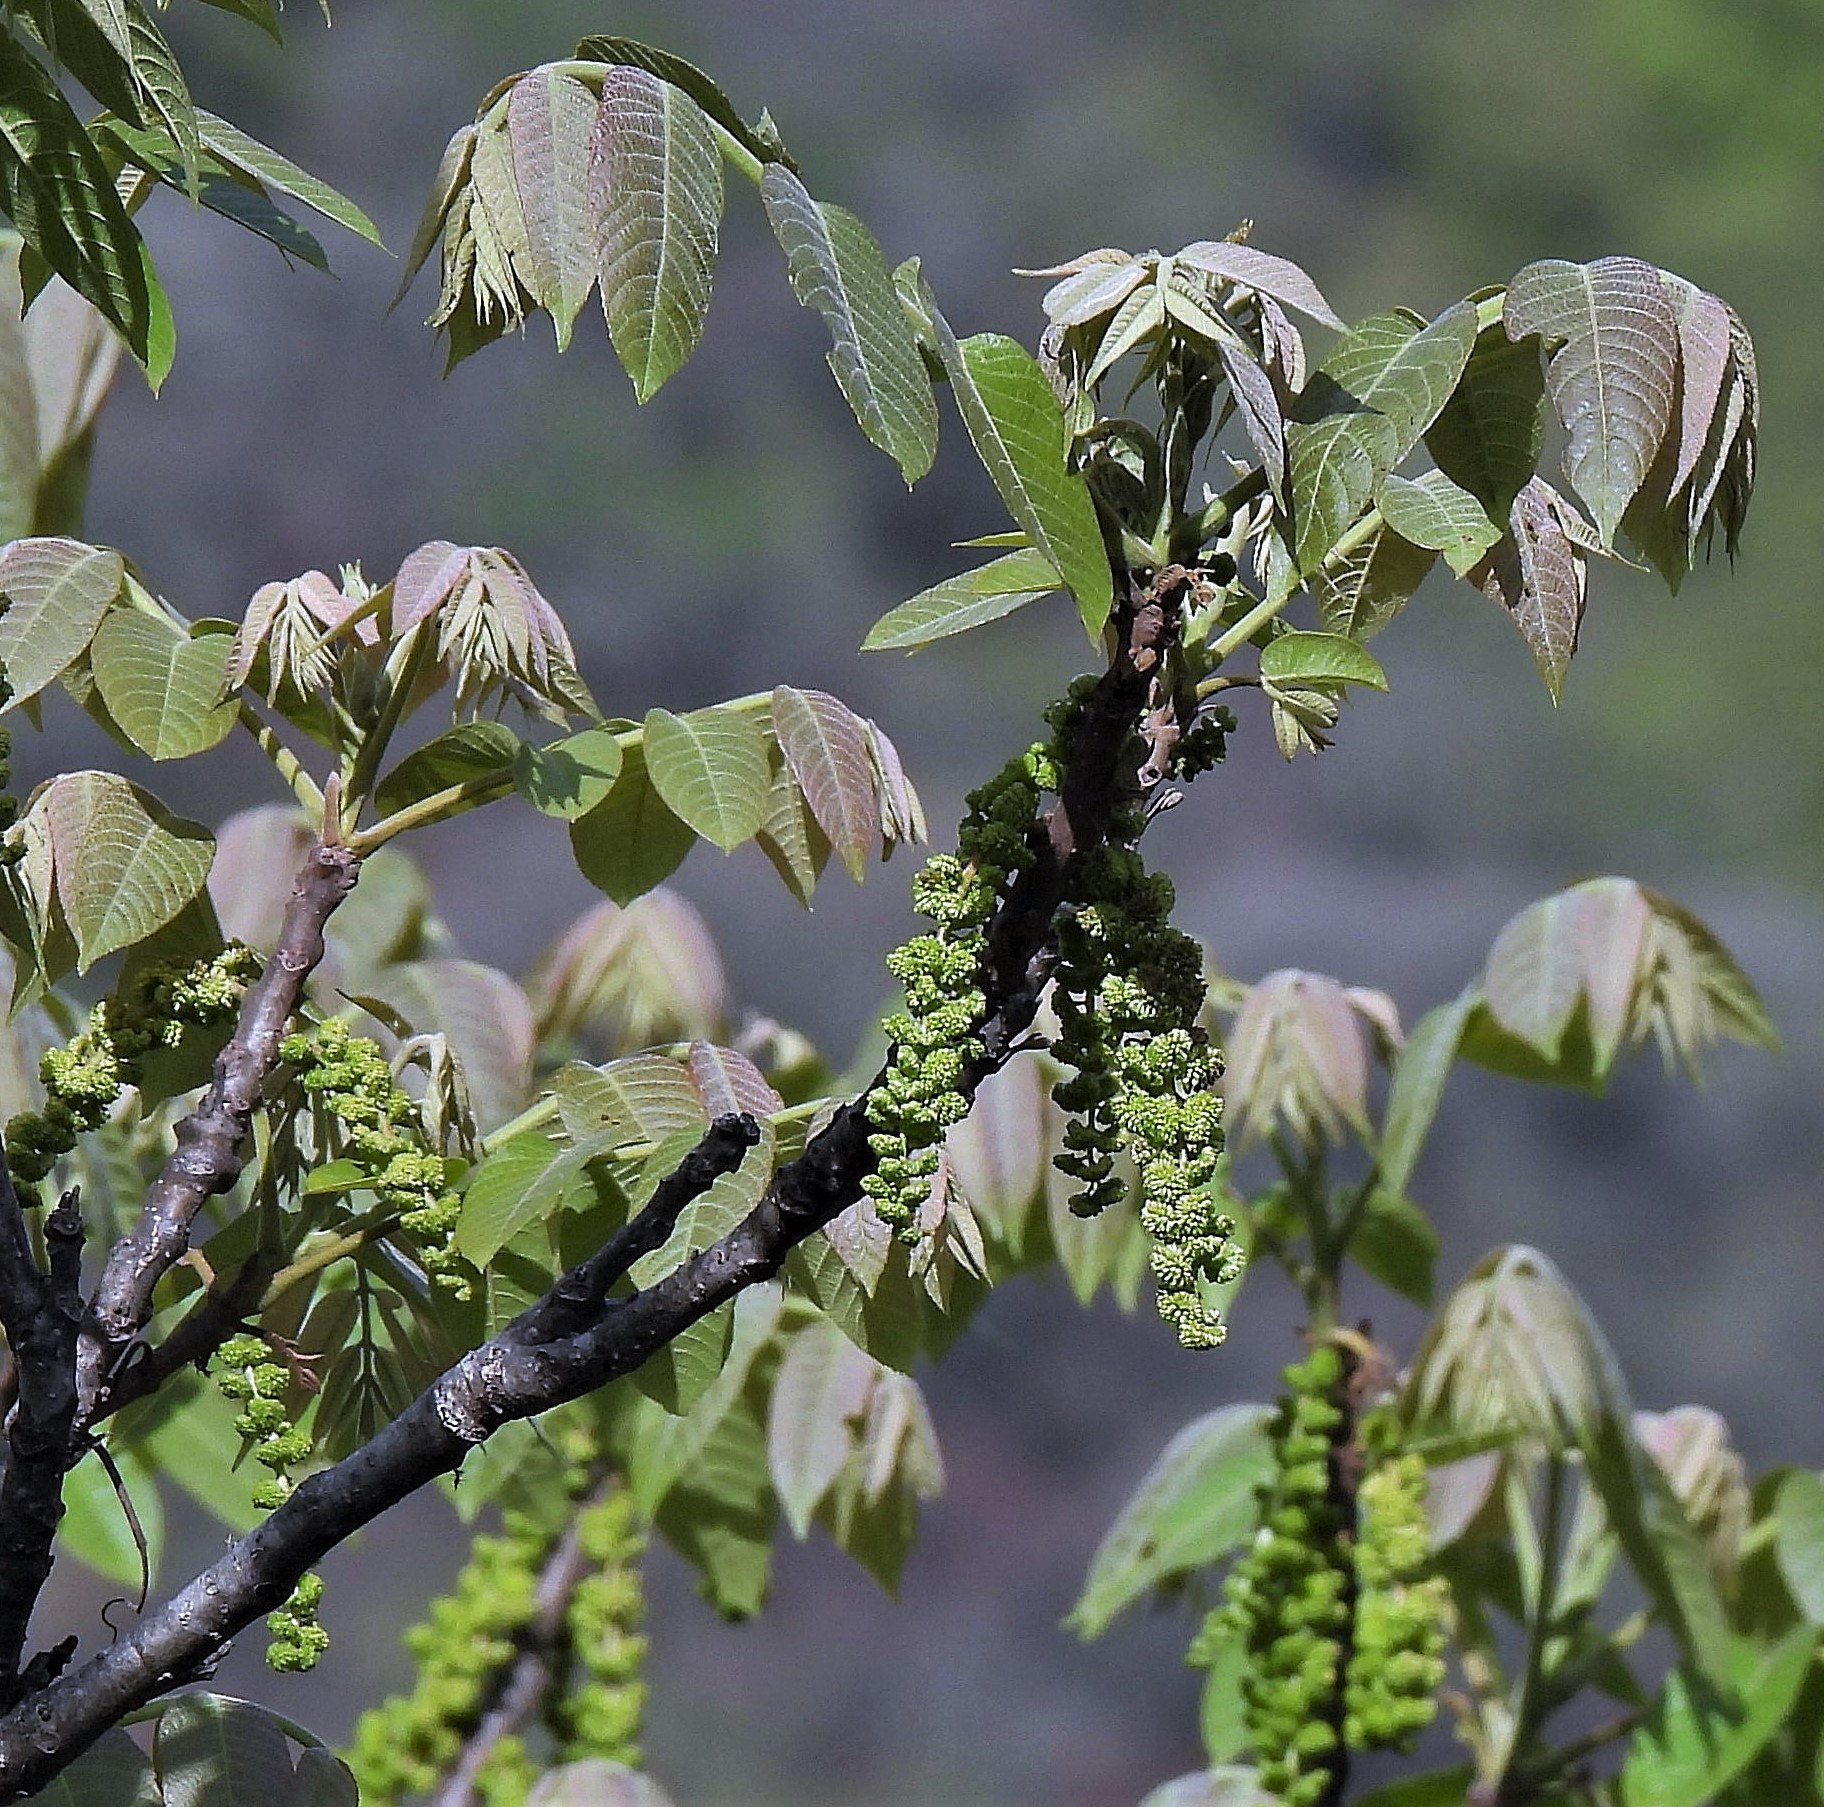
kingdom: Plantae
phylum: Tracheophyta
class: Magnoliopsida
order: Fagales
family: Juglandaceae
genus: Juglans
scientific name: Juglans australis
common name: Argentine walnut
